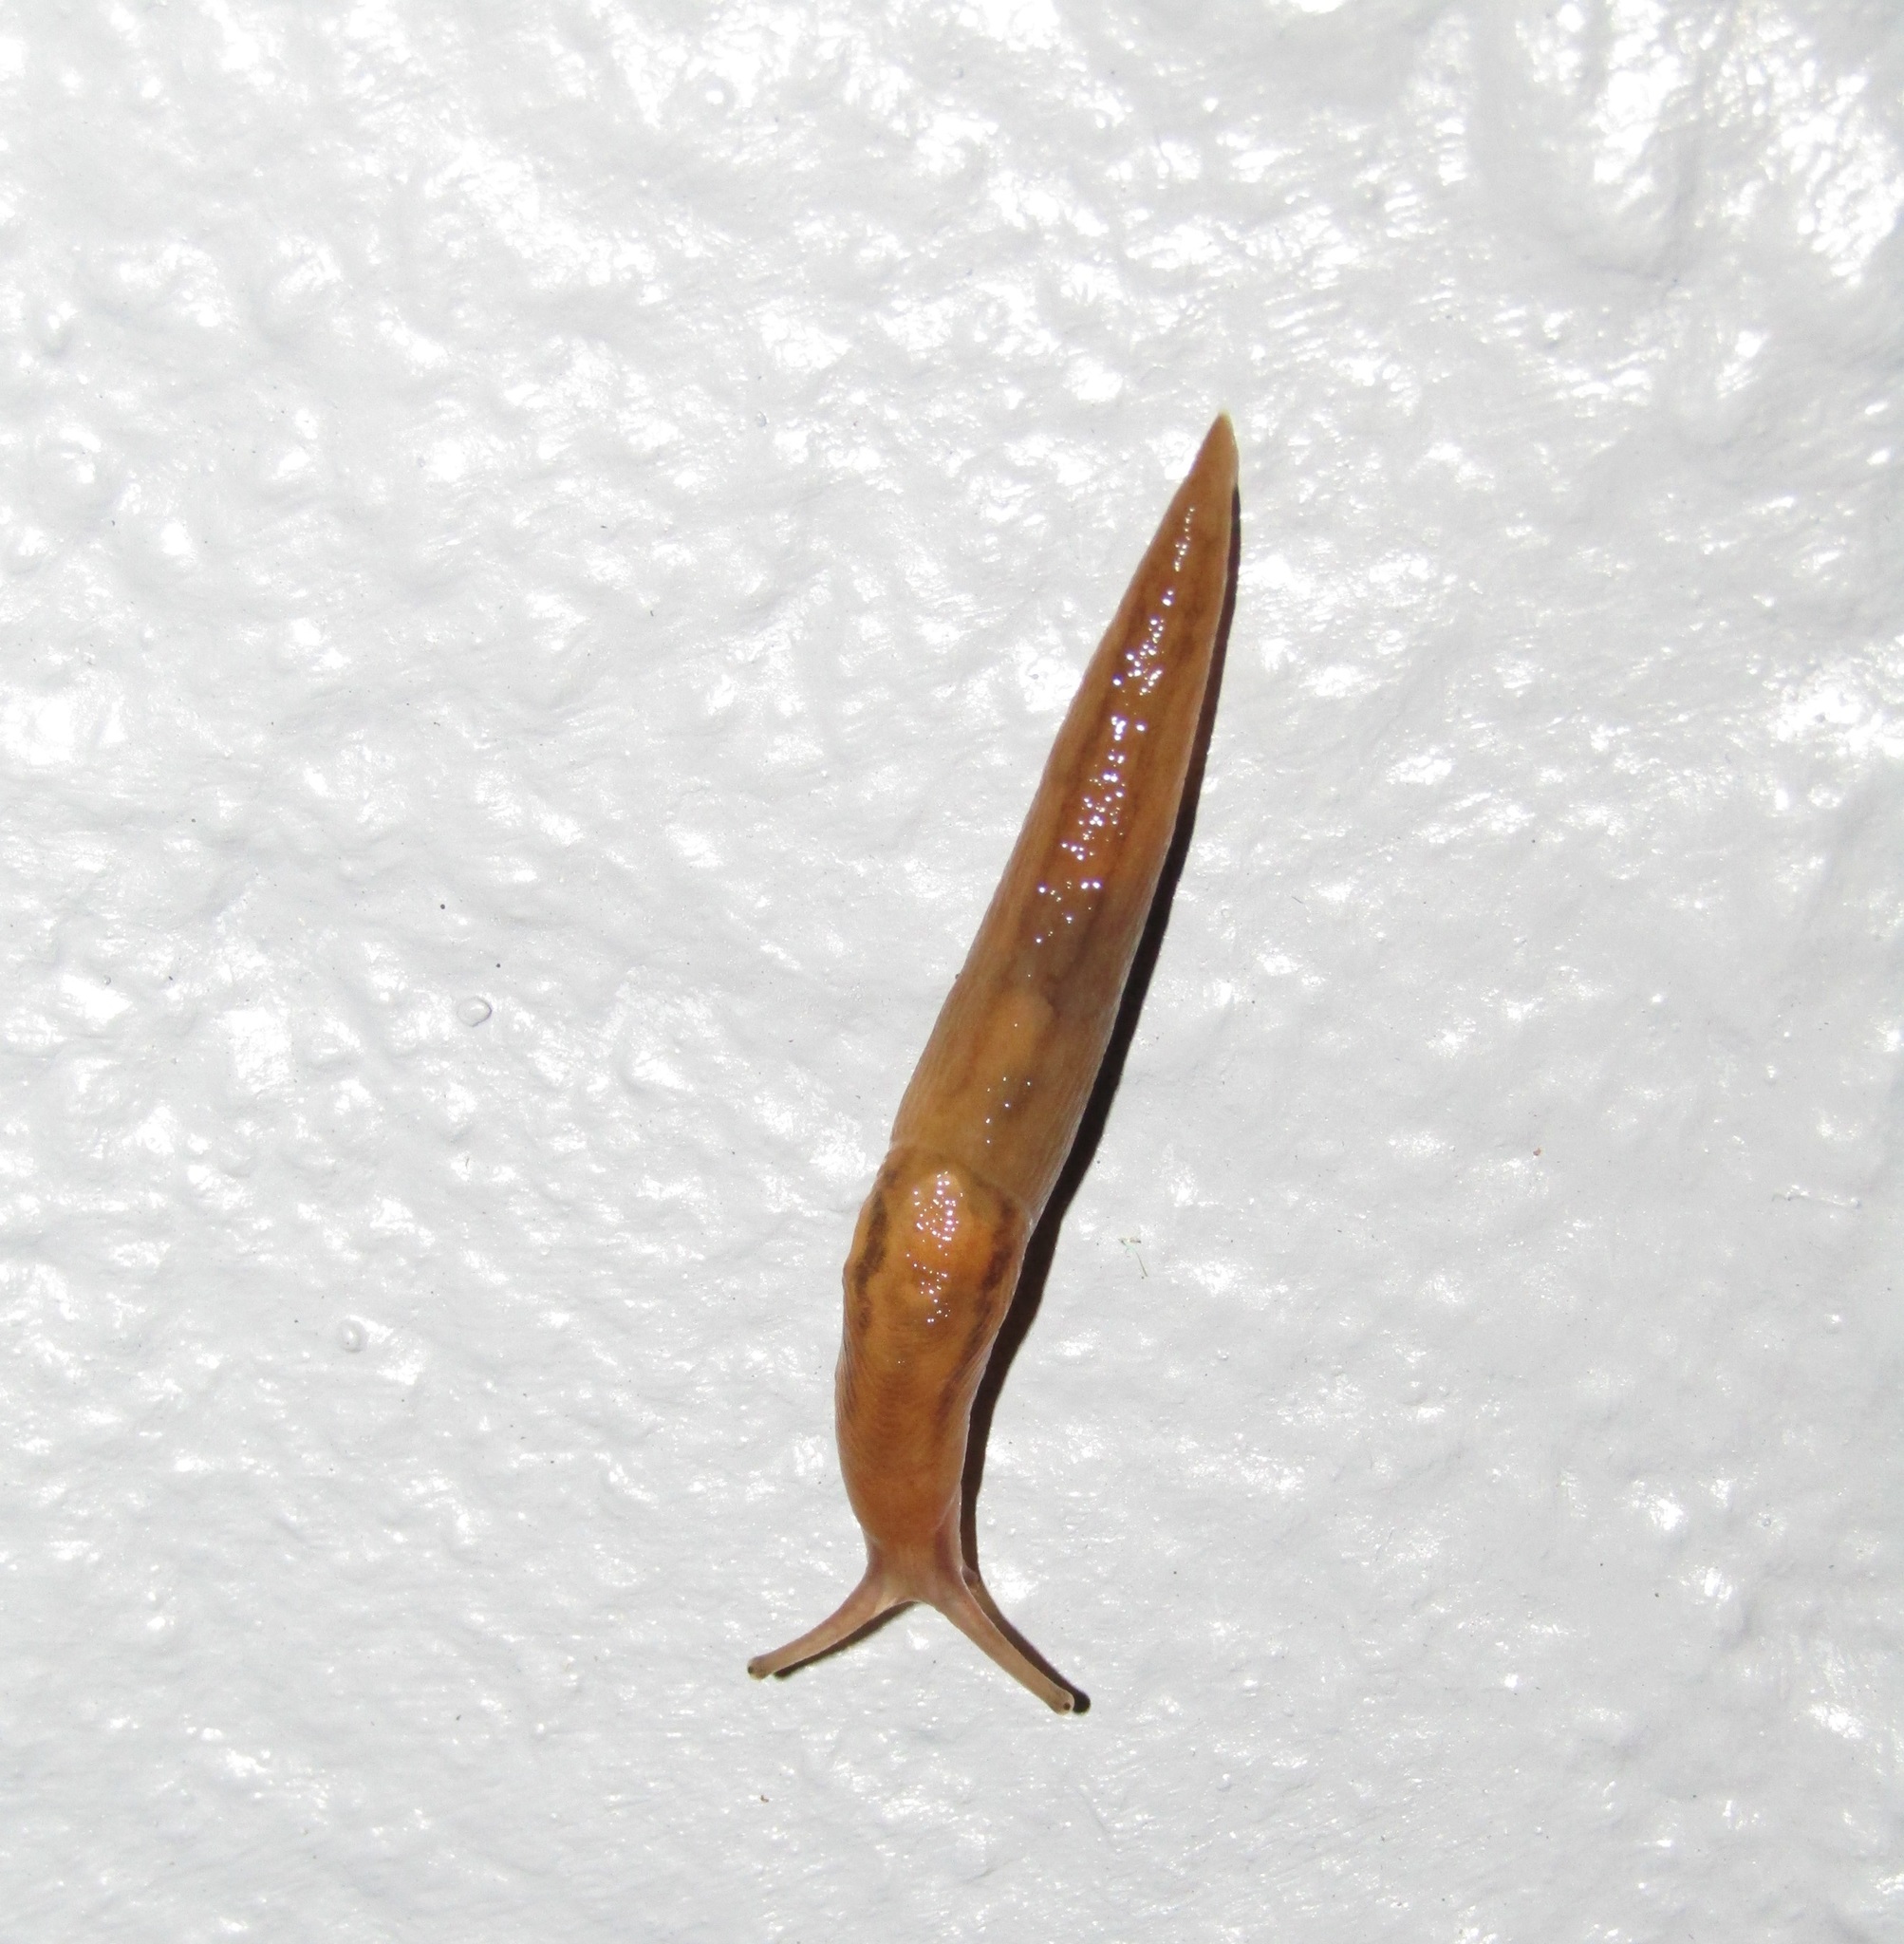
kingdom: Animalia
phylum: Mollusca
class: Gastropoda
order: Stylommatophora
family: Limacidae
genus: Ambigolimax
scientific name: Ambigolimax
